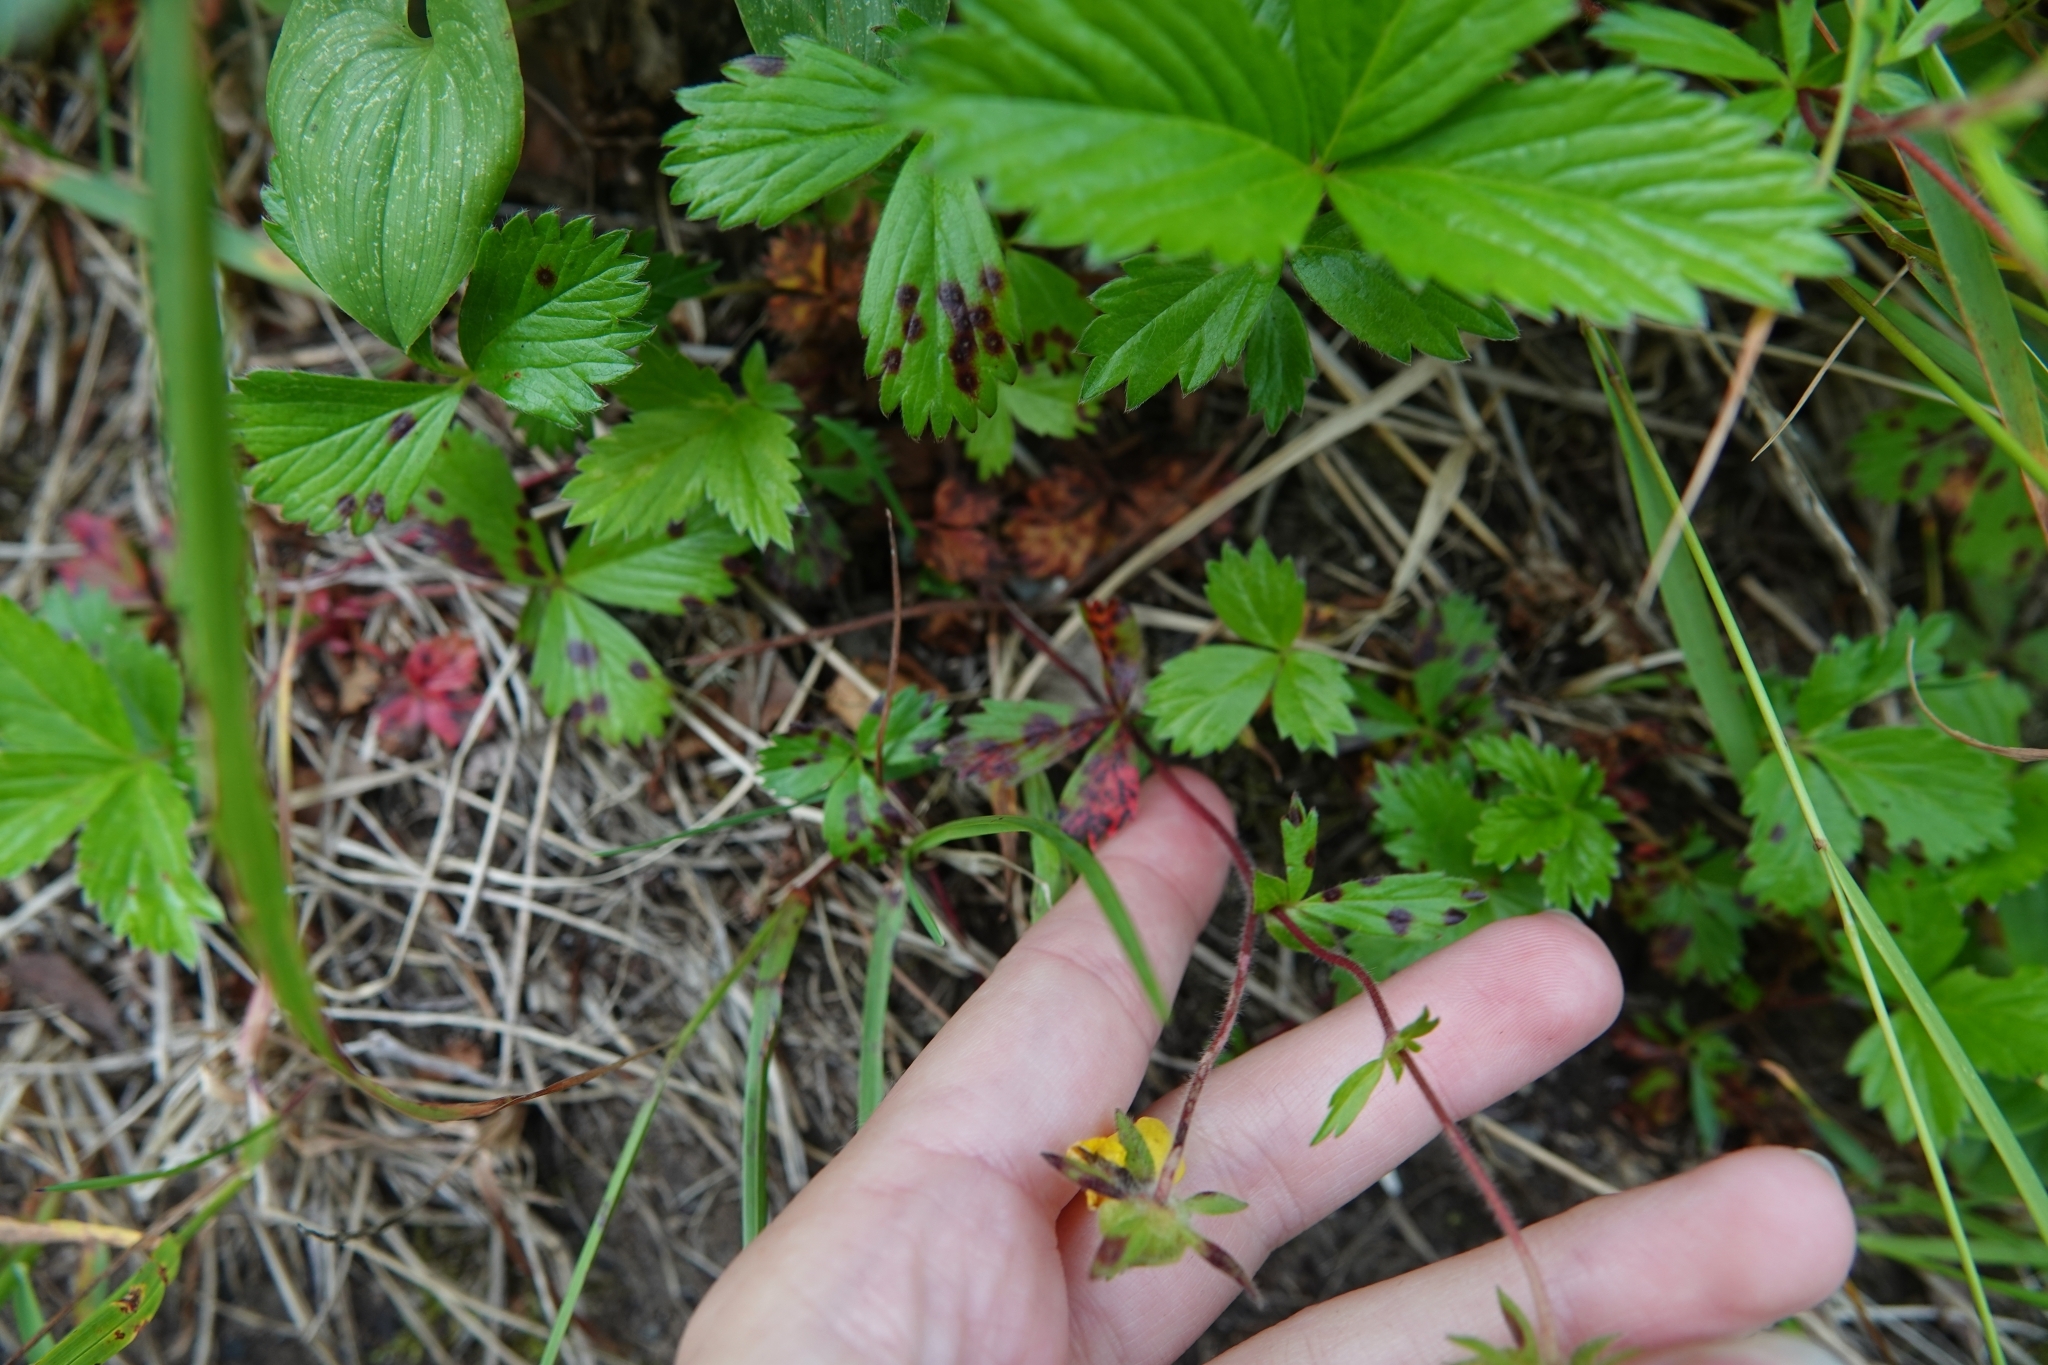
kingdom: Plantae
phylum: Tracheophyta
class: Magnoliopsida
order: Rosales
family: Rosaceae
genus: Potentilla
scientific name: Potentilla stolonifera
